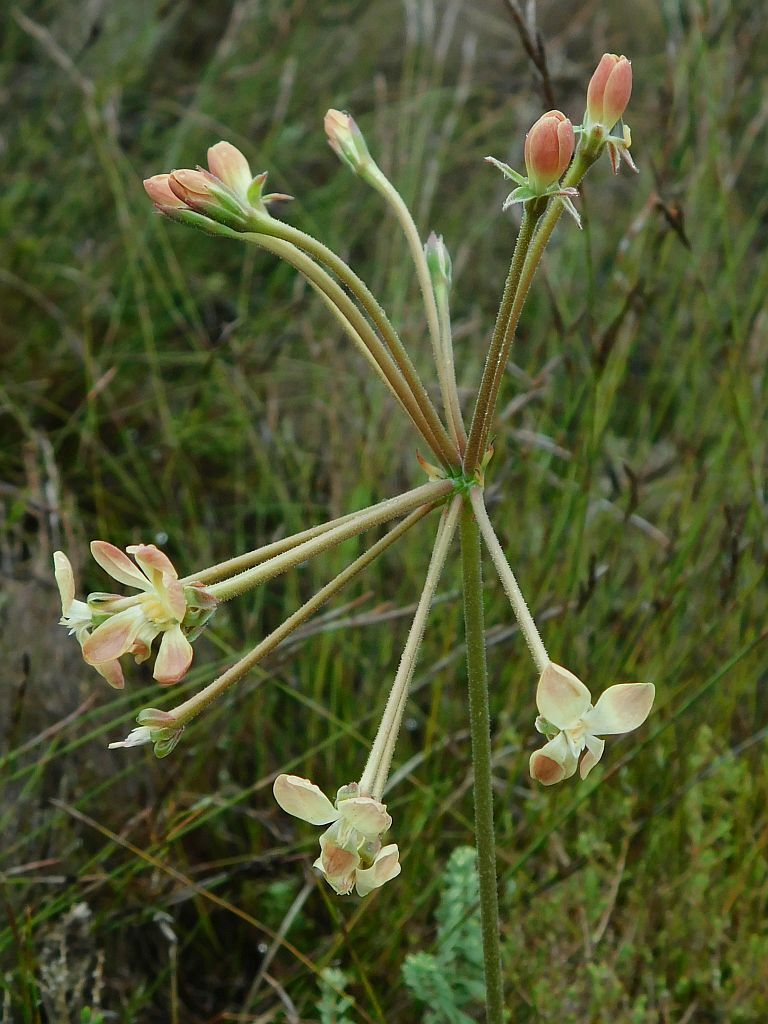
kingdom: Plantae
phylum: Tracheophyta
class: Magnoliopsida
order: Geraniales
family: Geraniaceae
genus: Pelargonium
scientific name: Pelargonium pillansii
